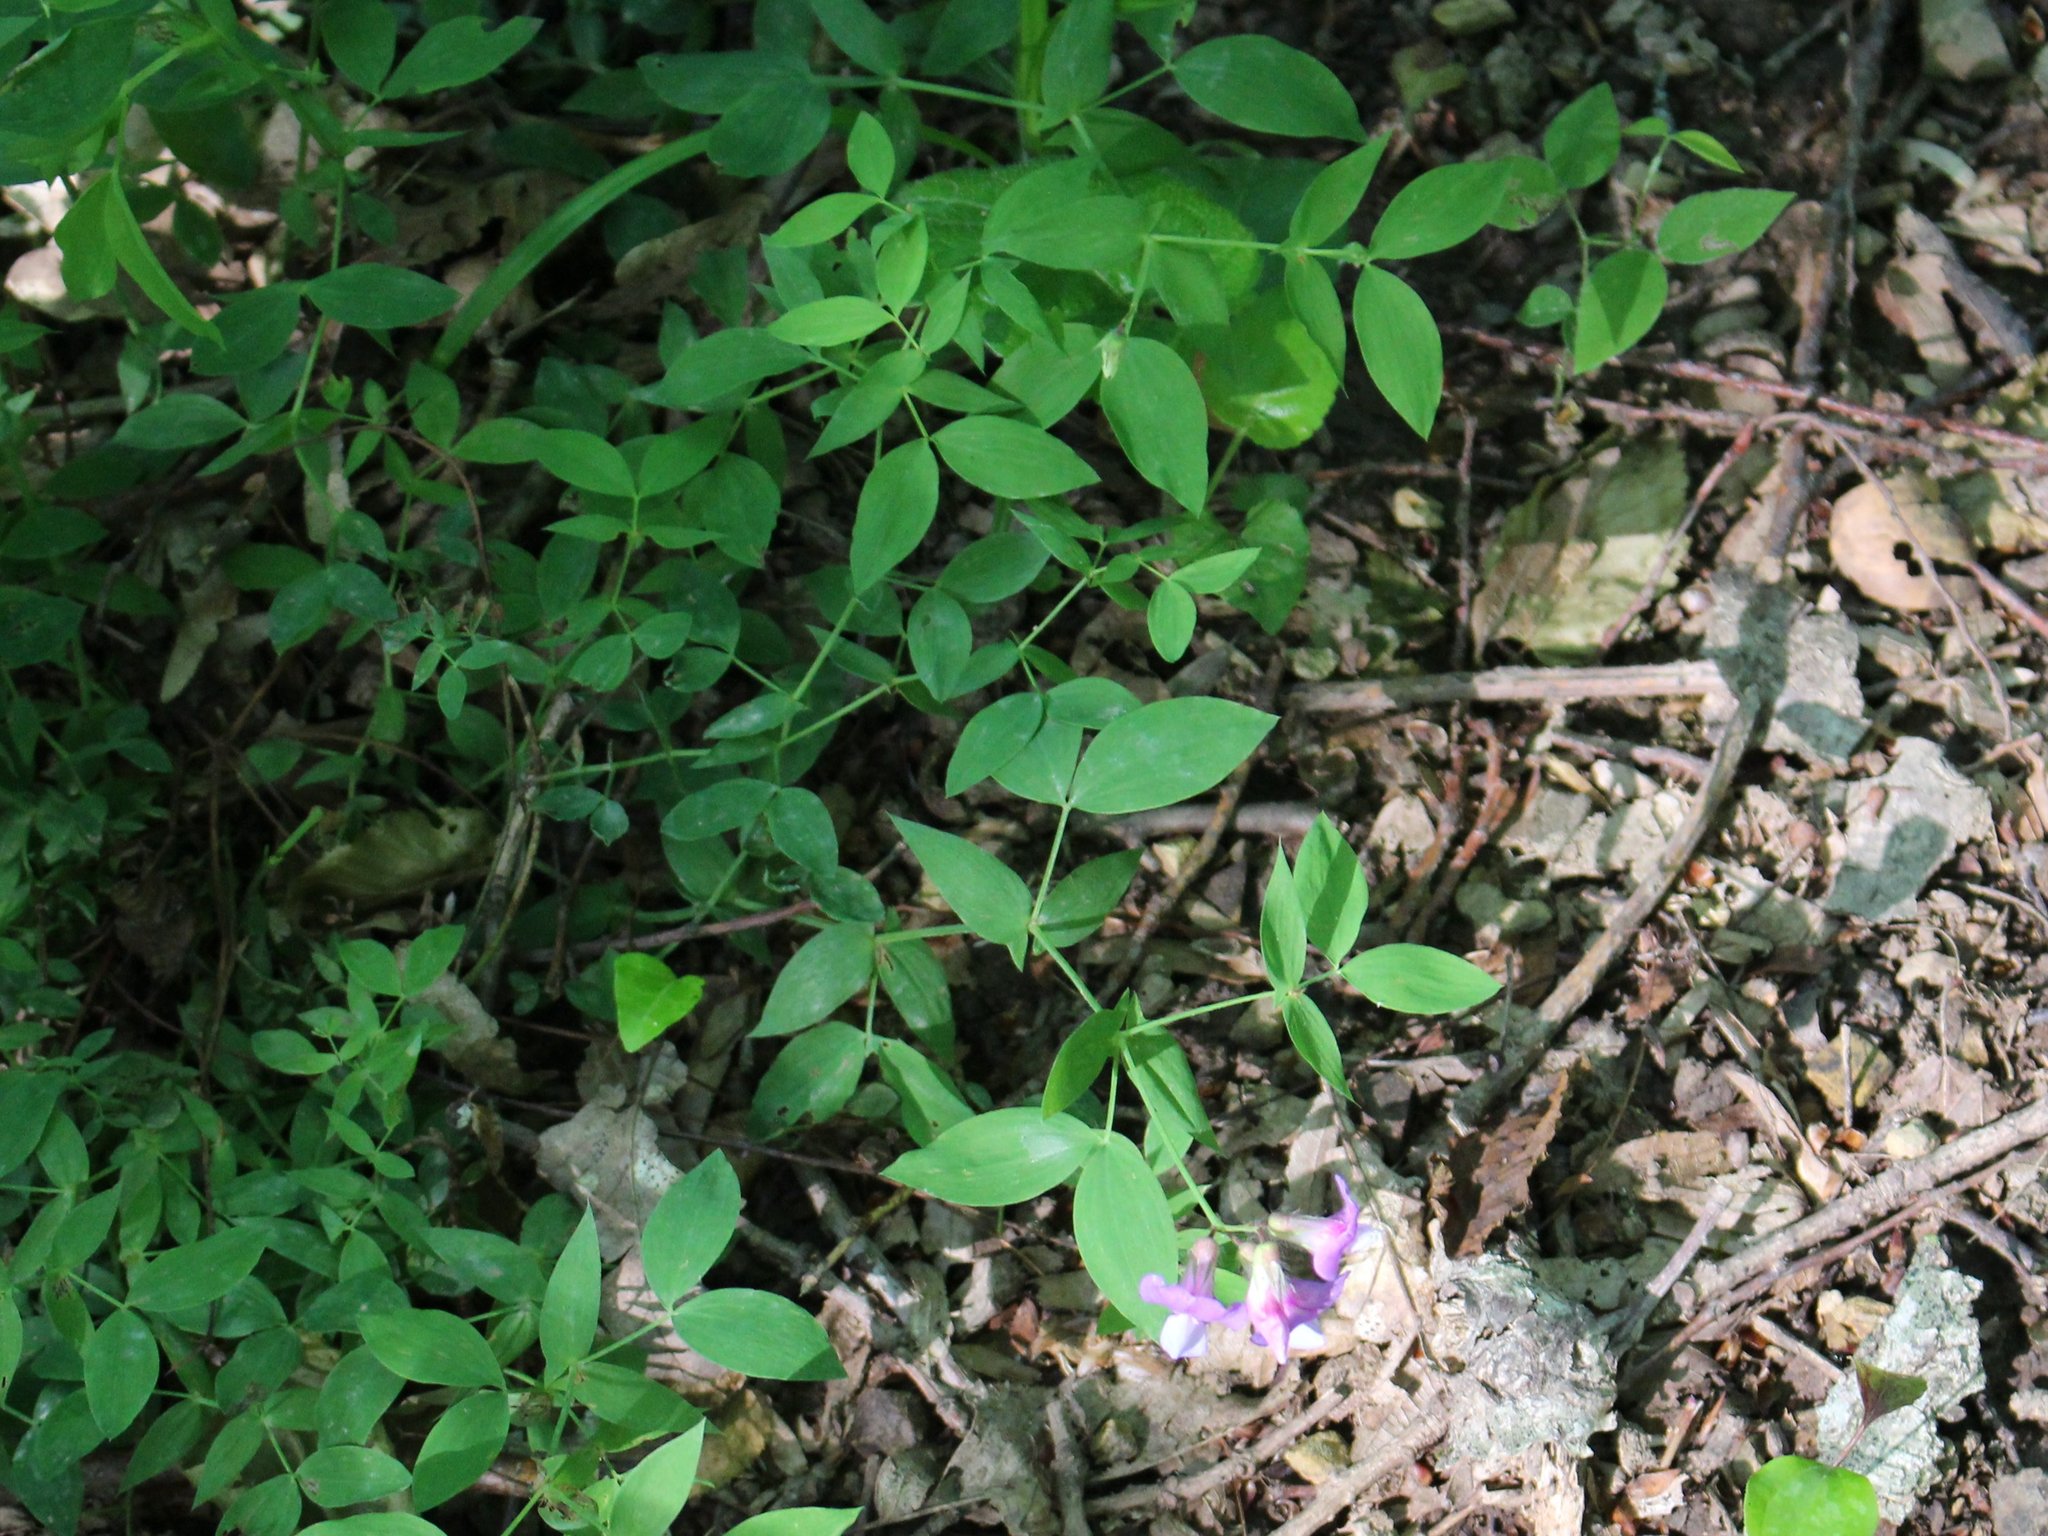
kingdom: Plantae
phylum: Tracheophyta
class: Magnoliopsida
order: Fabales
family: Fabaceae
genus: Lathyrus
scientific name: Lathyrus laxiflorus
